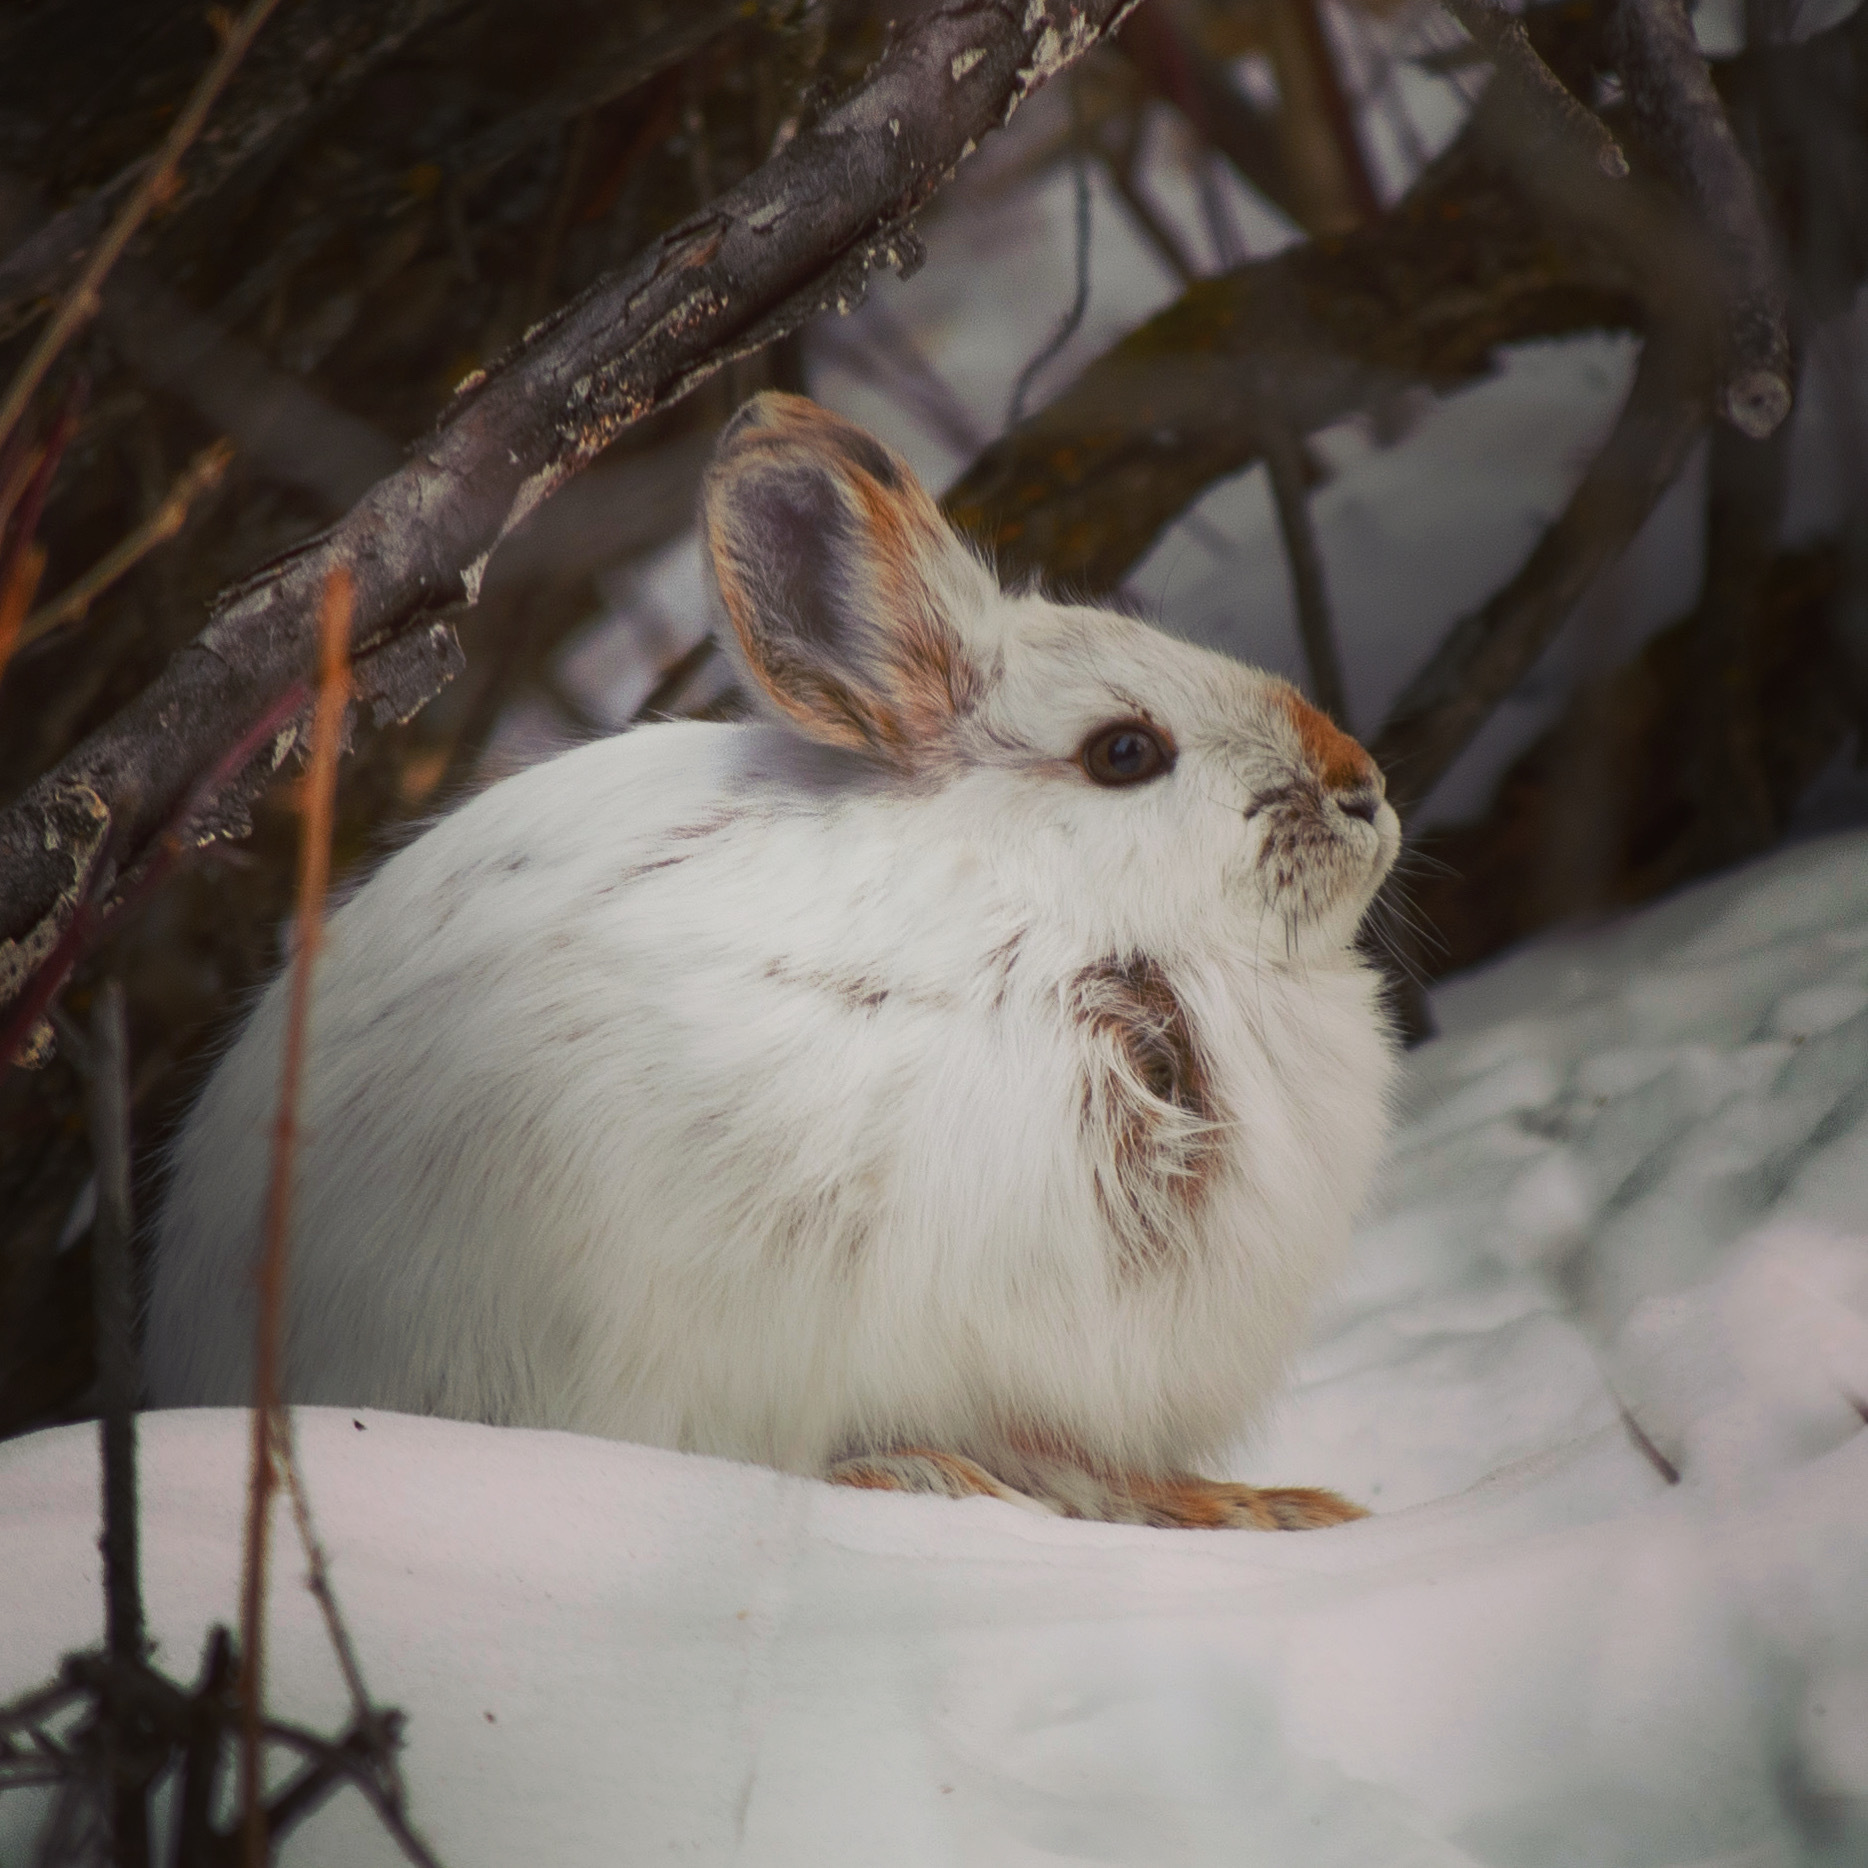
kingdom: Animalia
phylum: Chordata
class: Mammalia
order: Lagomorpha
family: Leporidae
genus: Lepus
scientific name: Lepus americanus
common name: Snowshoe hare
